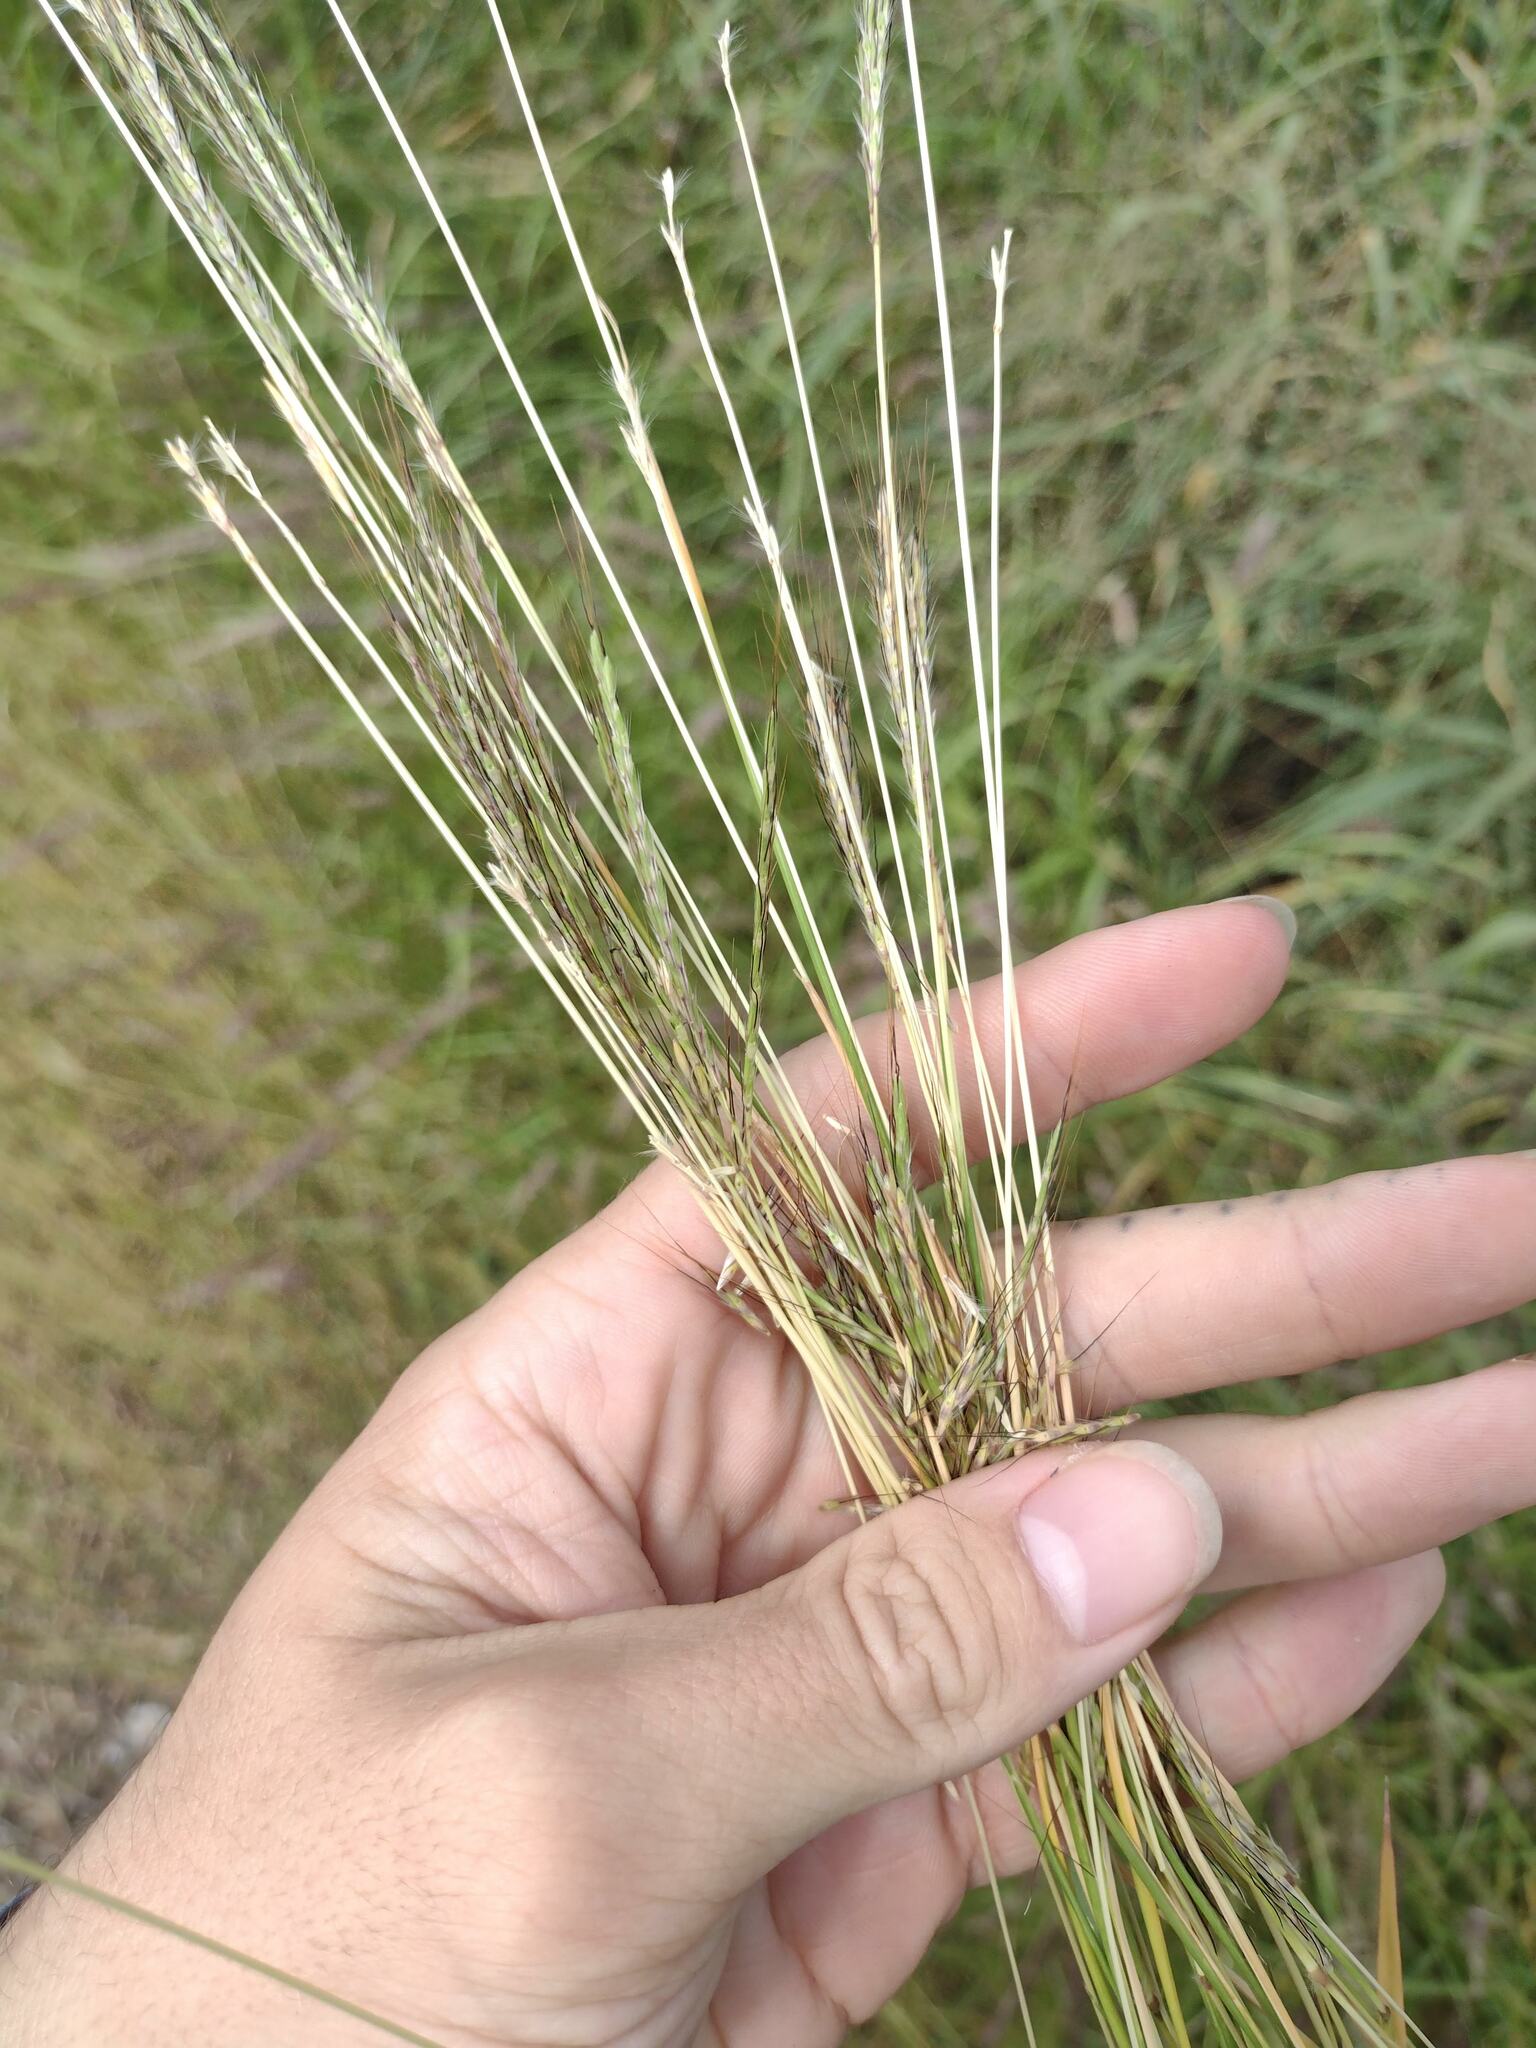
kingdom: Plantae
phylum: Tracheophyta
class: Liliopsida
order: Poales
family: Poaceae
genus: Bothriochloa
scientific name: Bothriochloa pertusa
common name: Pitted beardgrass
